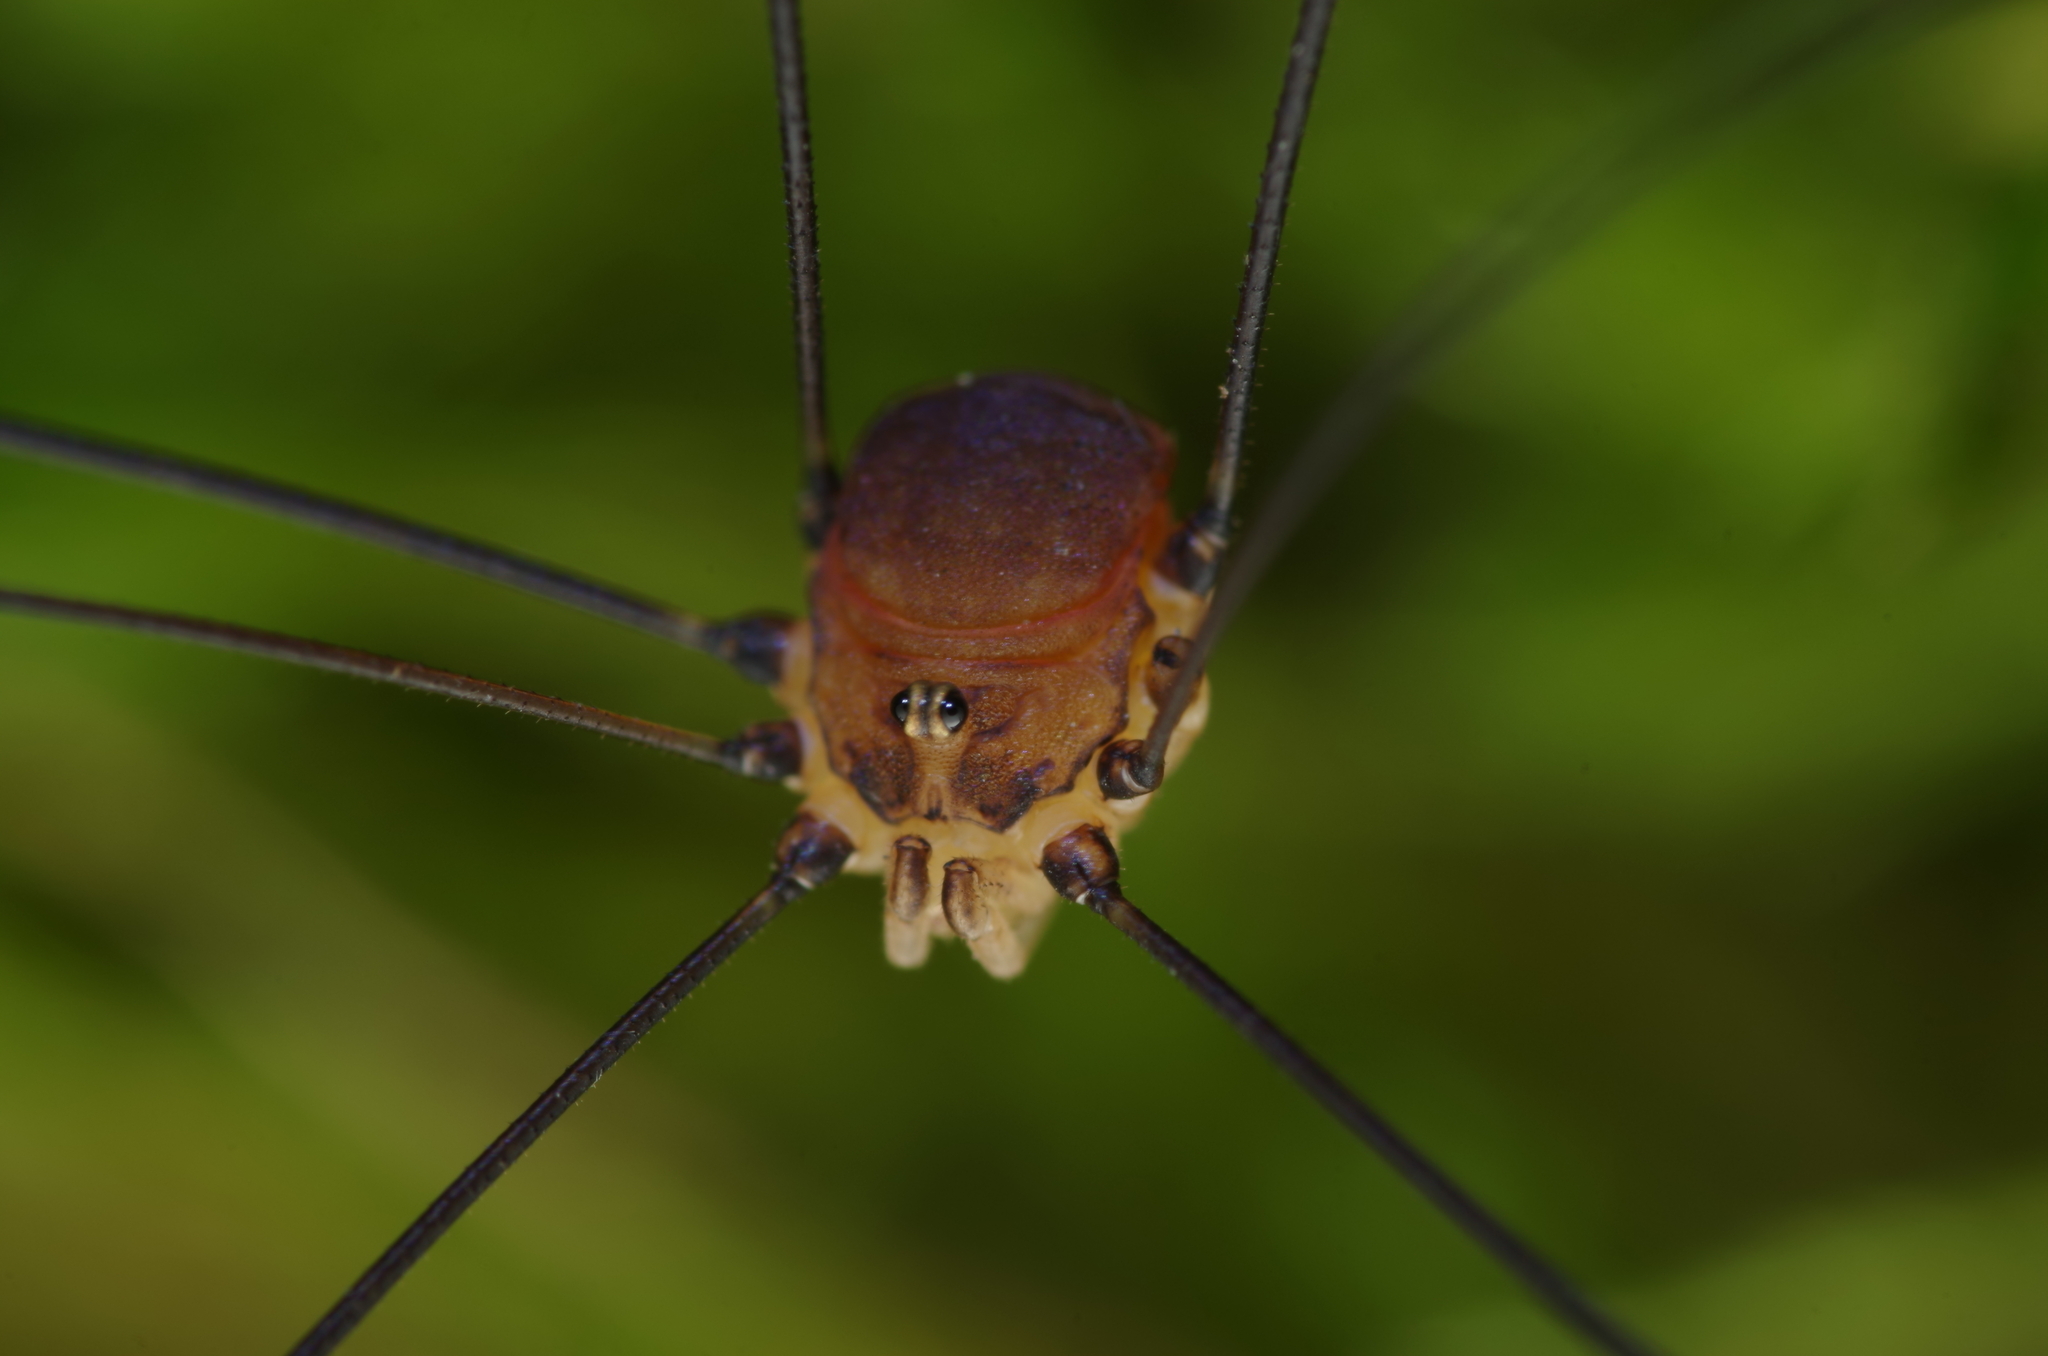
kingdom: Animalia
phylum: Arthropoda
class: Arachnida
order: Opiliones
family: Sclerosomatidae
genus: Leiobunum
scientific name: Leiobunum blackwalli
